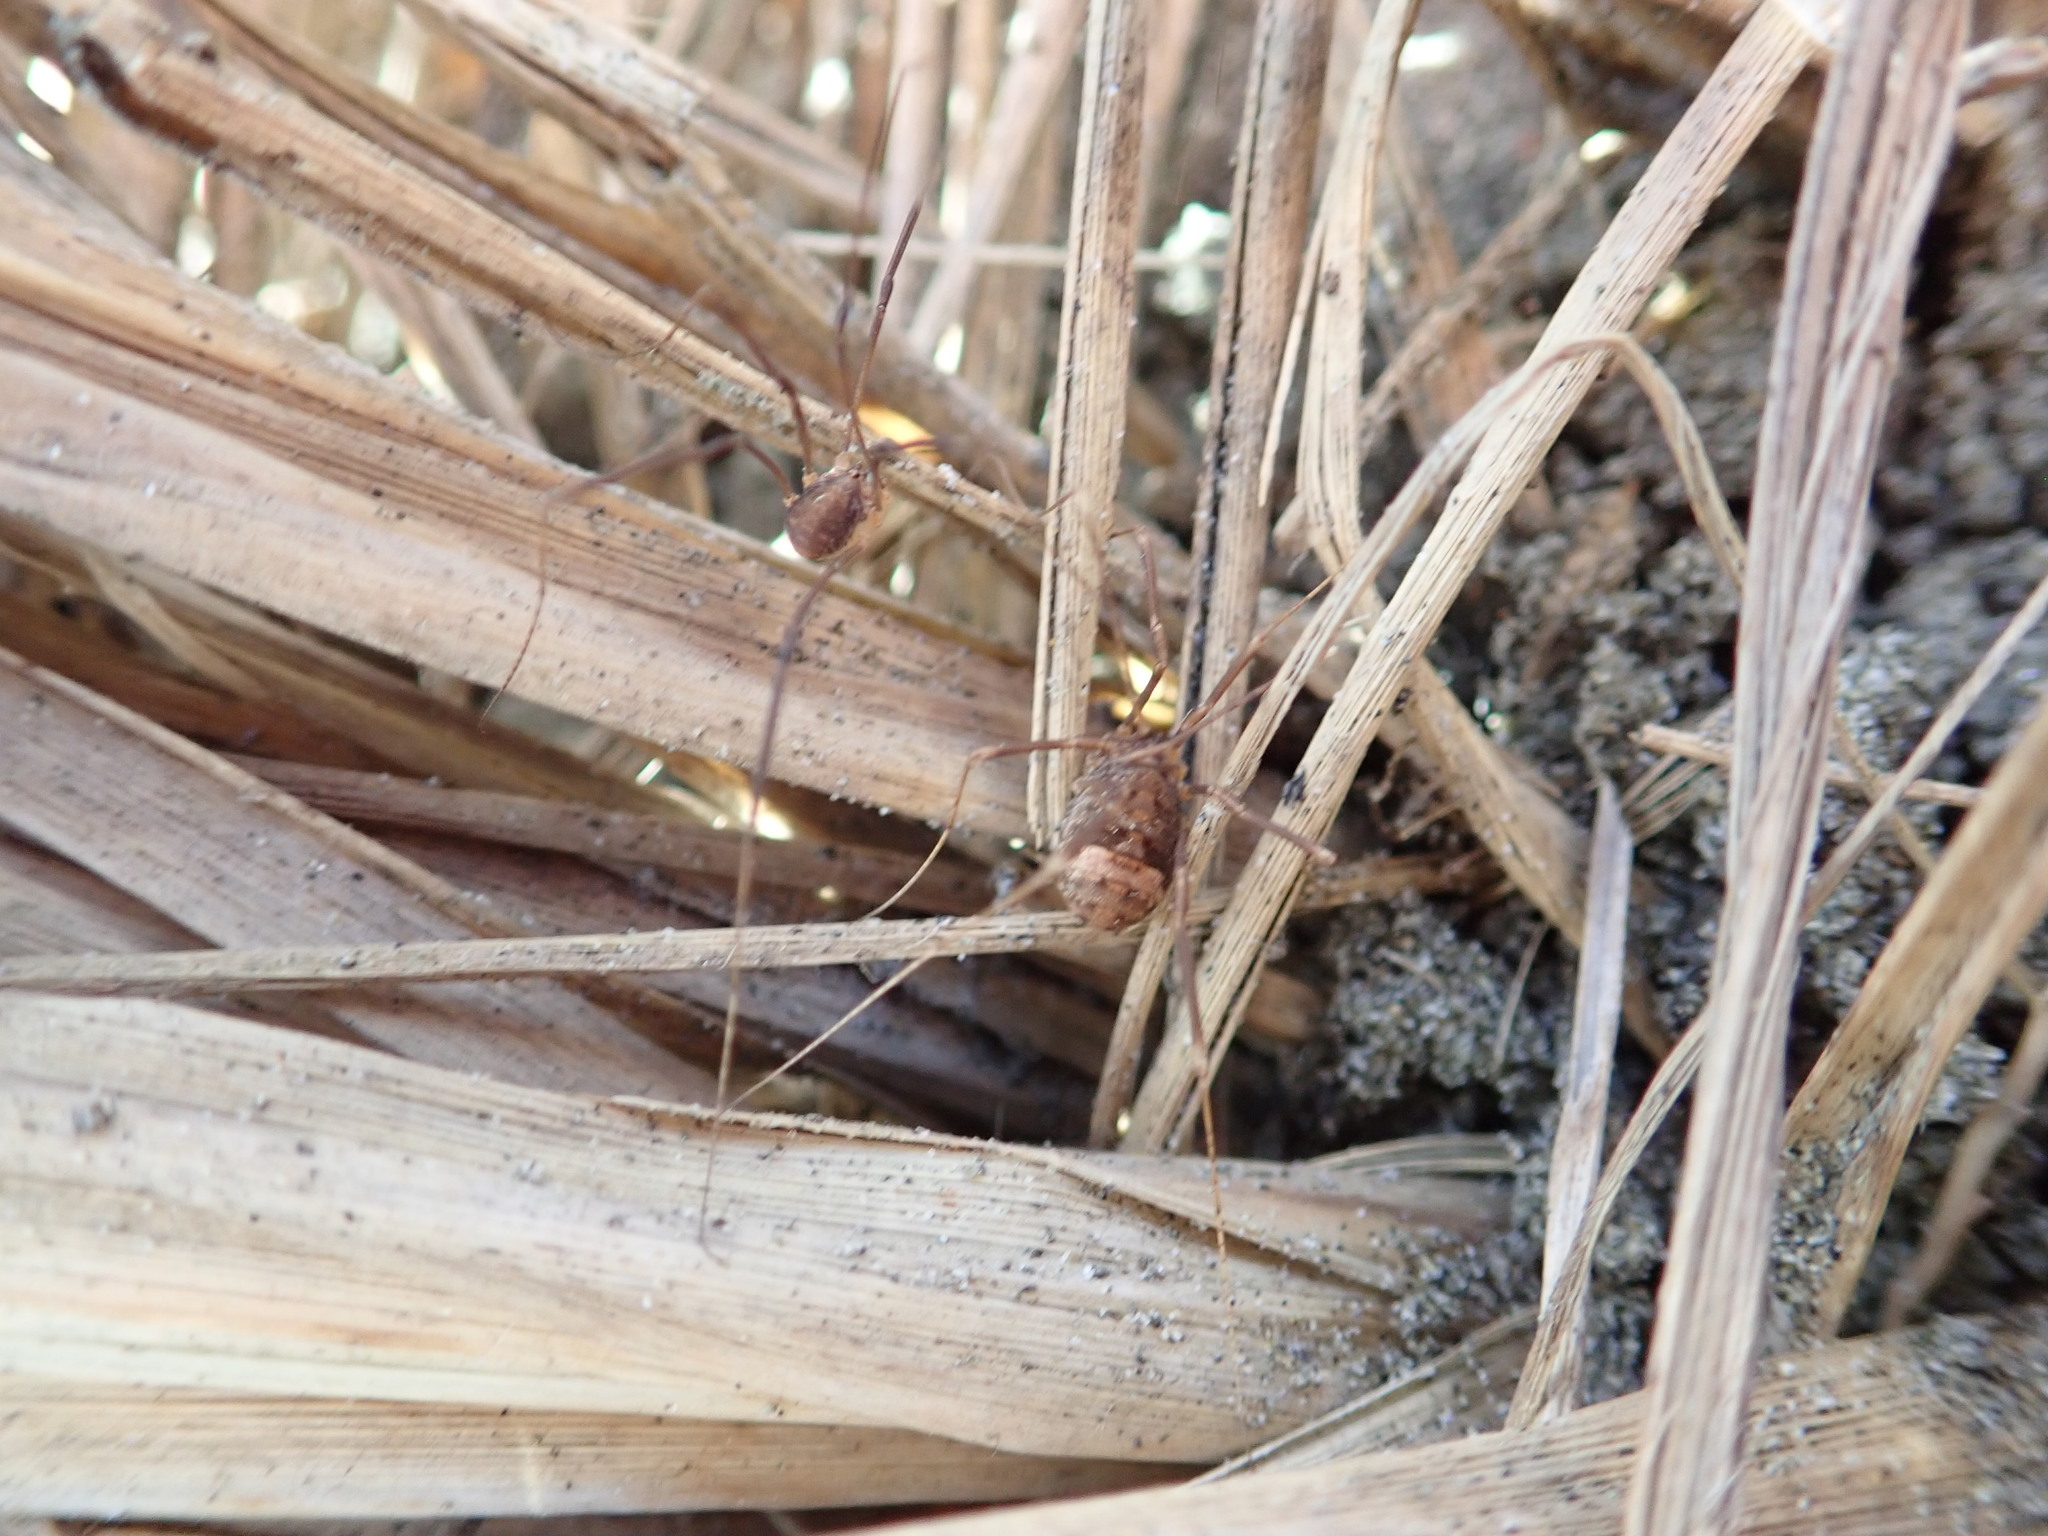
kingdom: Animalia
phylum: Arthropoda
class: Arachnida
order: Opiliones
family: Sclerosomatidae
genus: Nelima
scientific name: Nelima doriae
